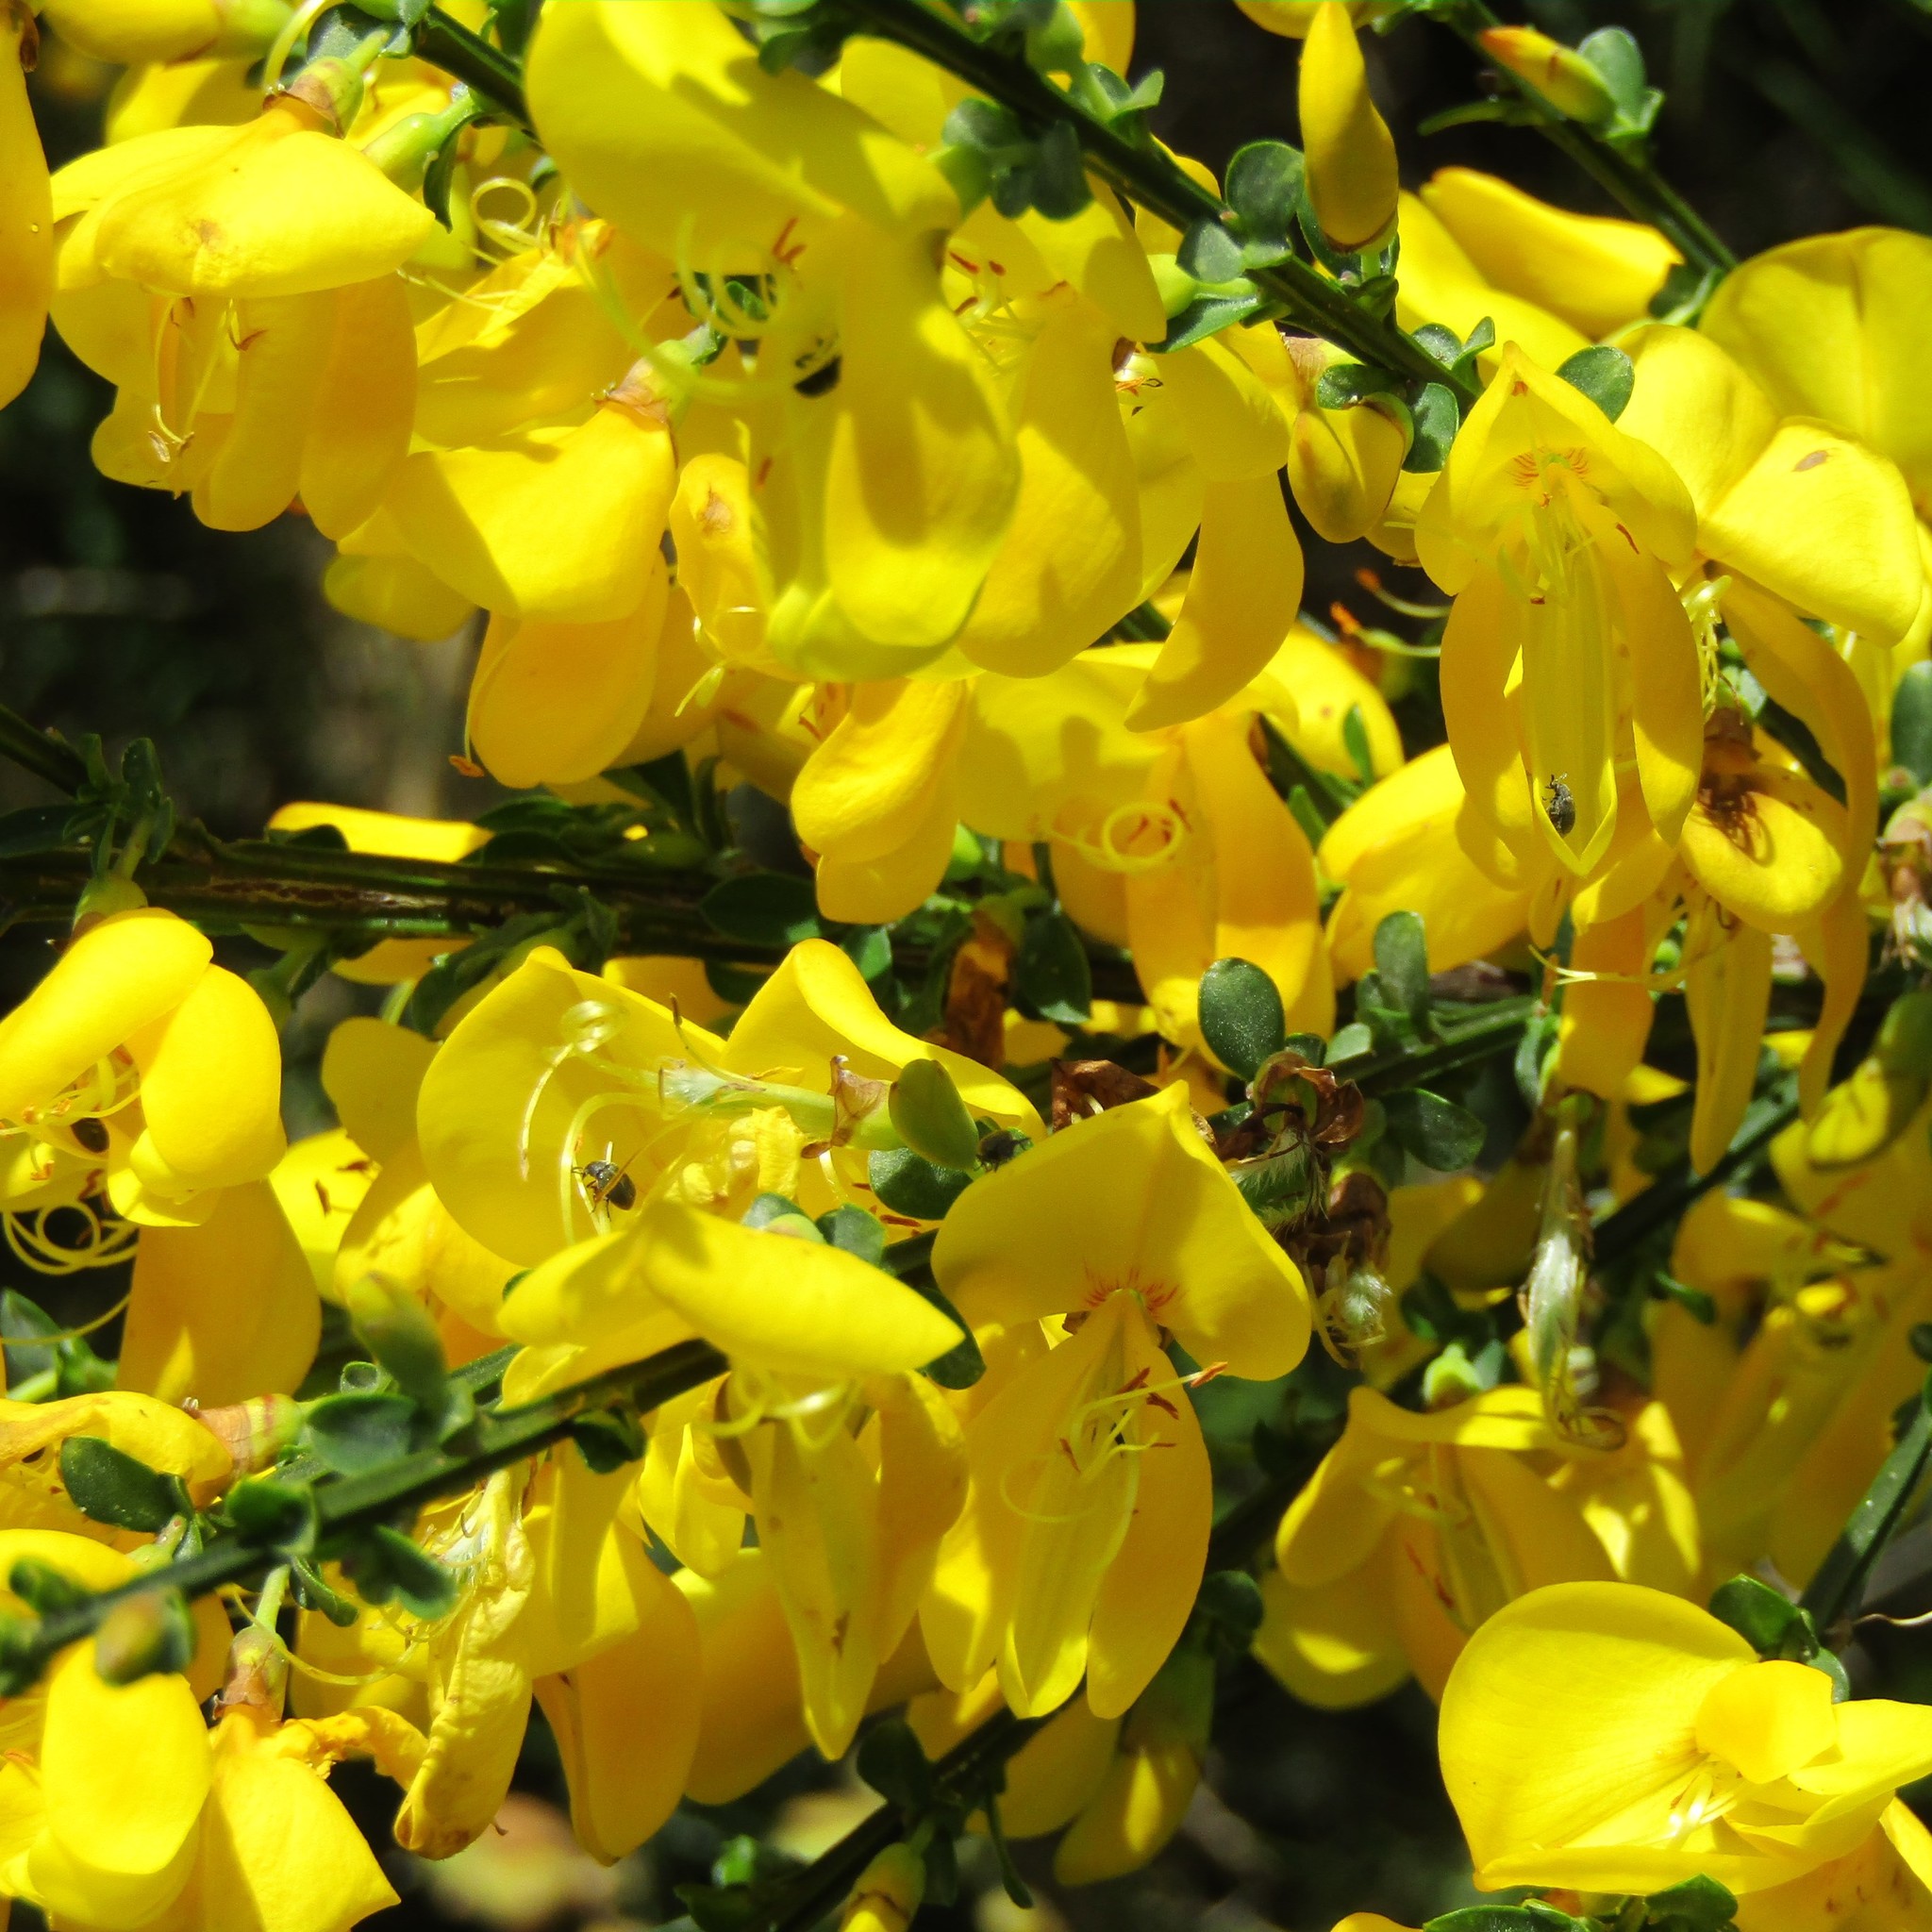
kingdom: Plantae
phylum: Tracheophyta
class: Magnoliopsida
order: Fabales
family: Fabaceae
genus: Cytisus
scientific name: Cytisus scoparius
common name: Scotch broom
